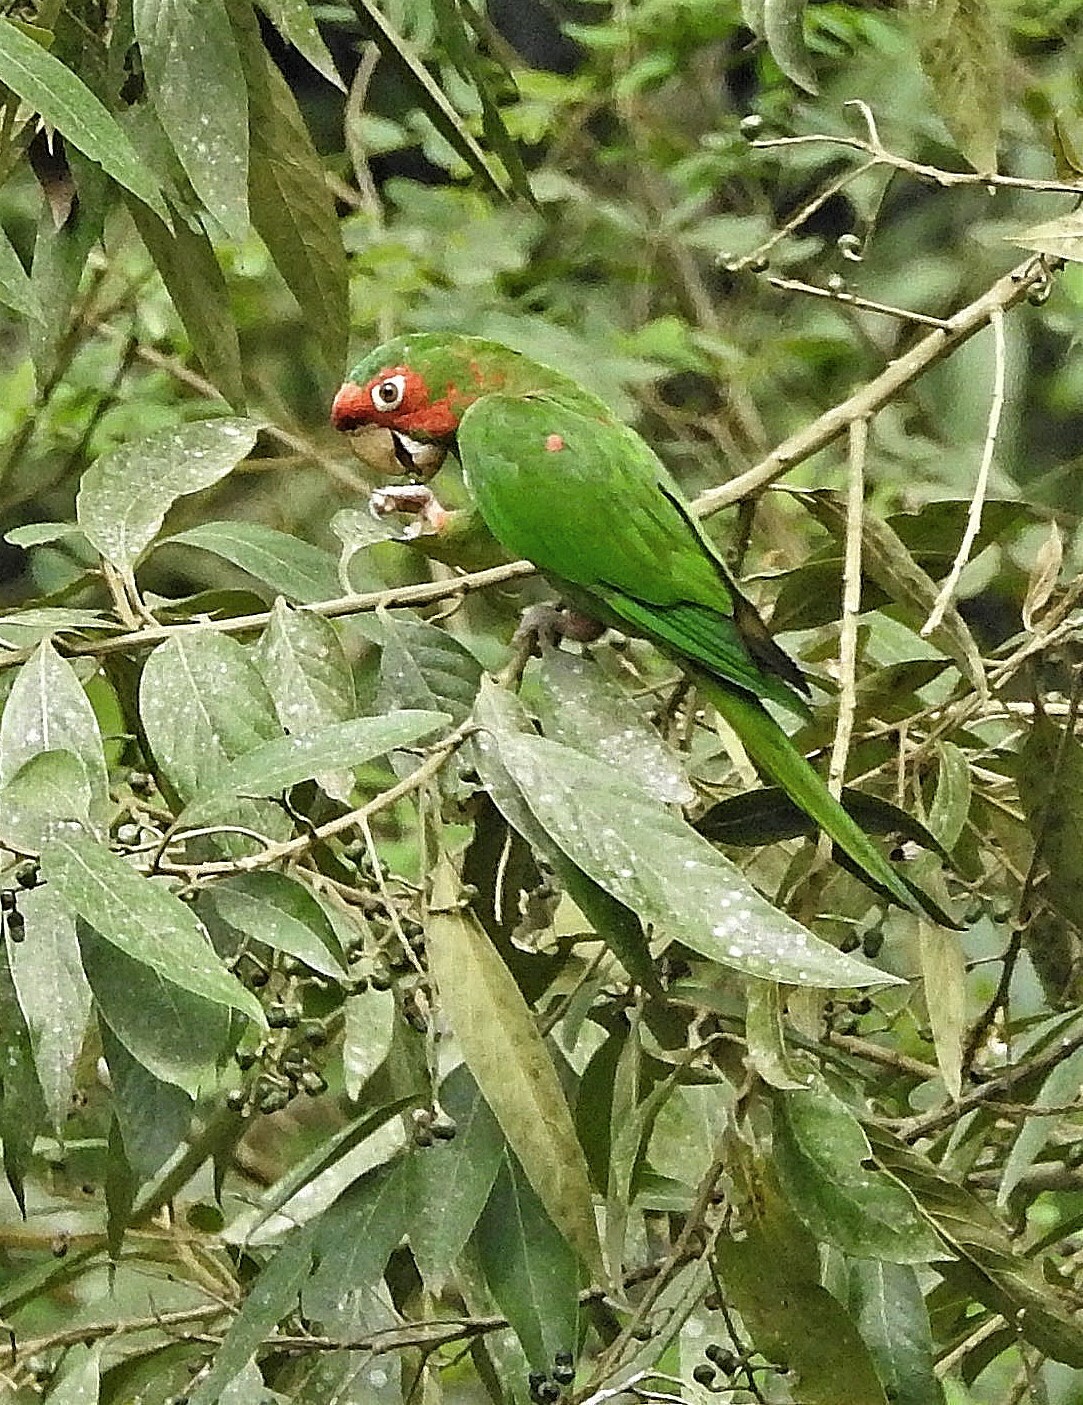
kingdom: Animalia
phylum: Chordata
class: Aves
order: Psittaciformes
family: Psittacidae
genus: Aratinga
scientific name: Aratinga mitrata
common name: Mitred parakeet
